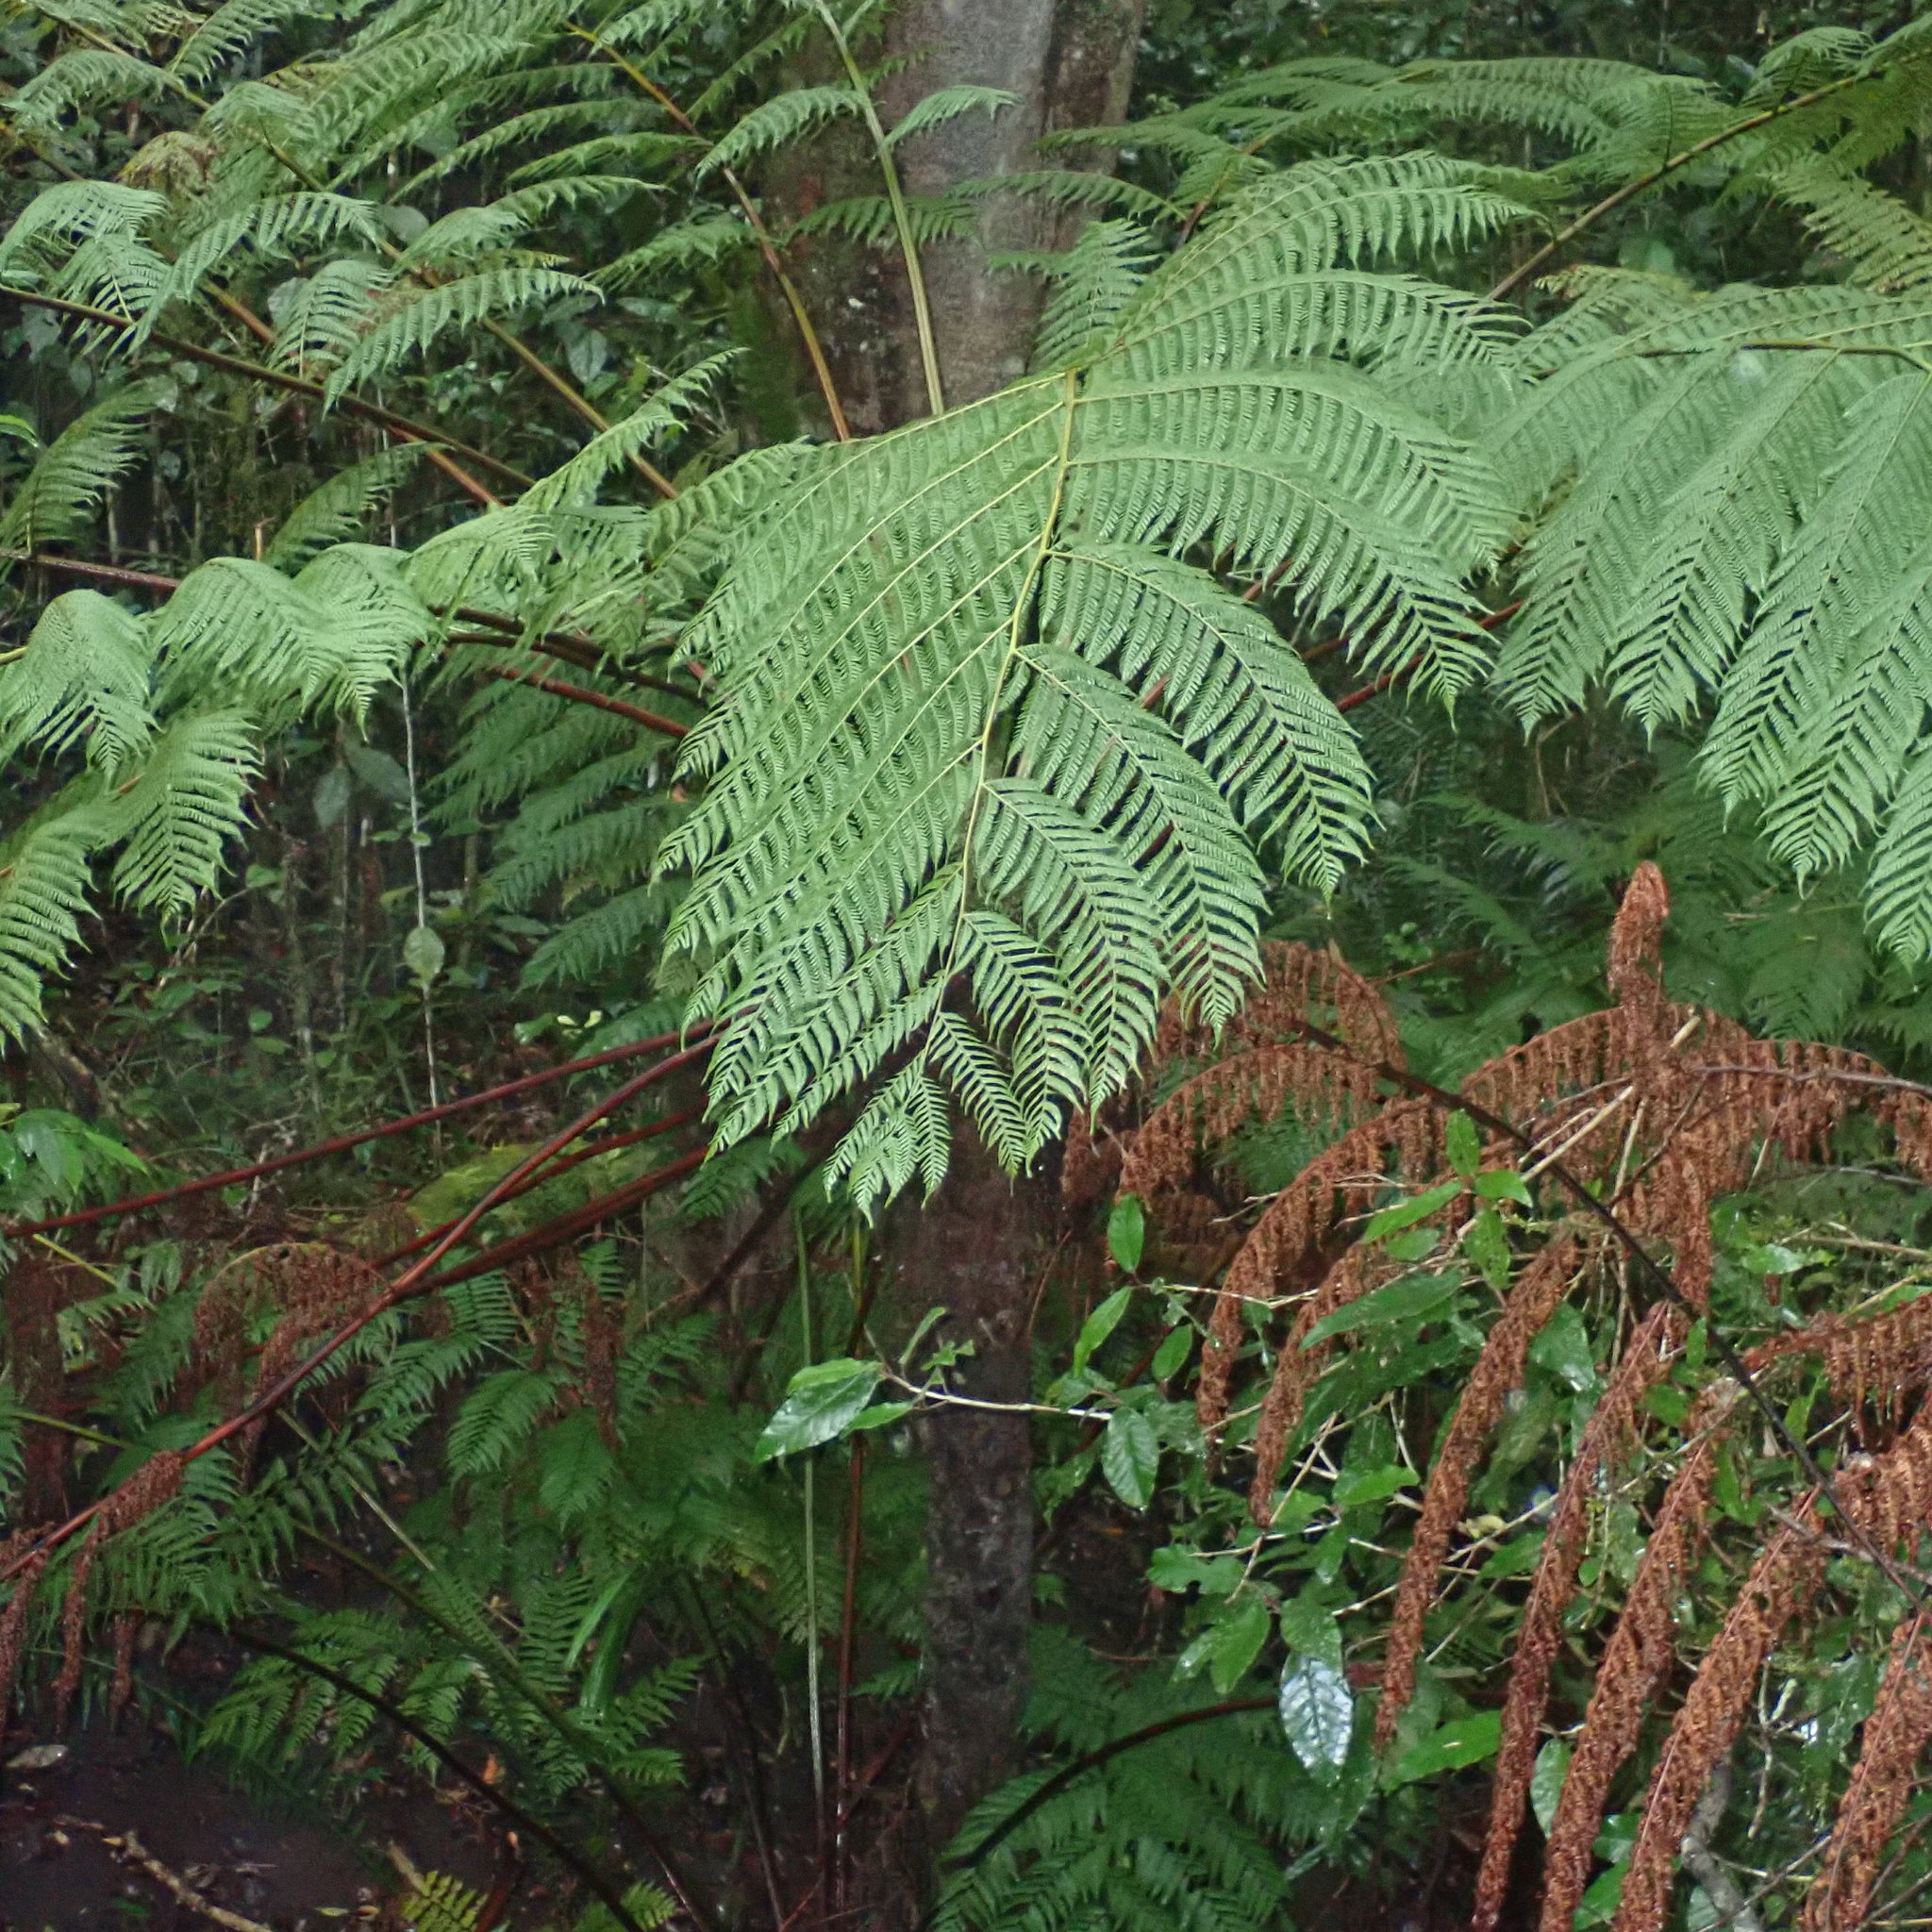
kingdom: Plantae
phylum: Tracheophyta
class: Polypodiopsida
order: Cyatheales
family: Cyatheaceae
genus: Gymnosphaera
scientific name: Gymnosphaera capensis
